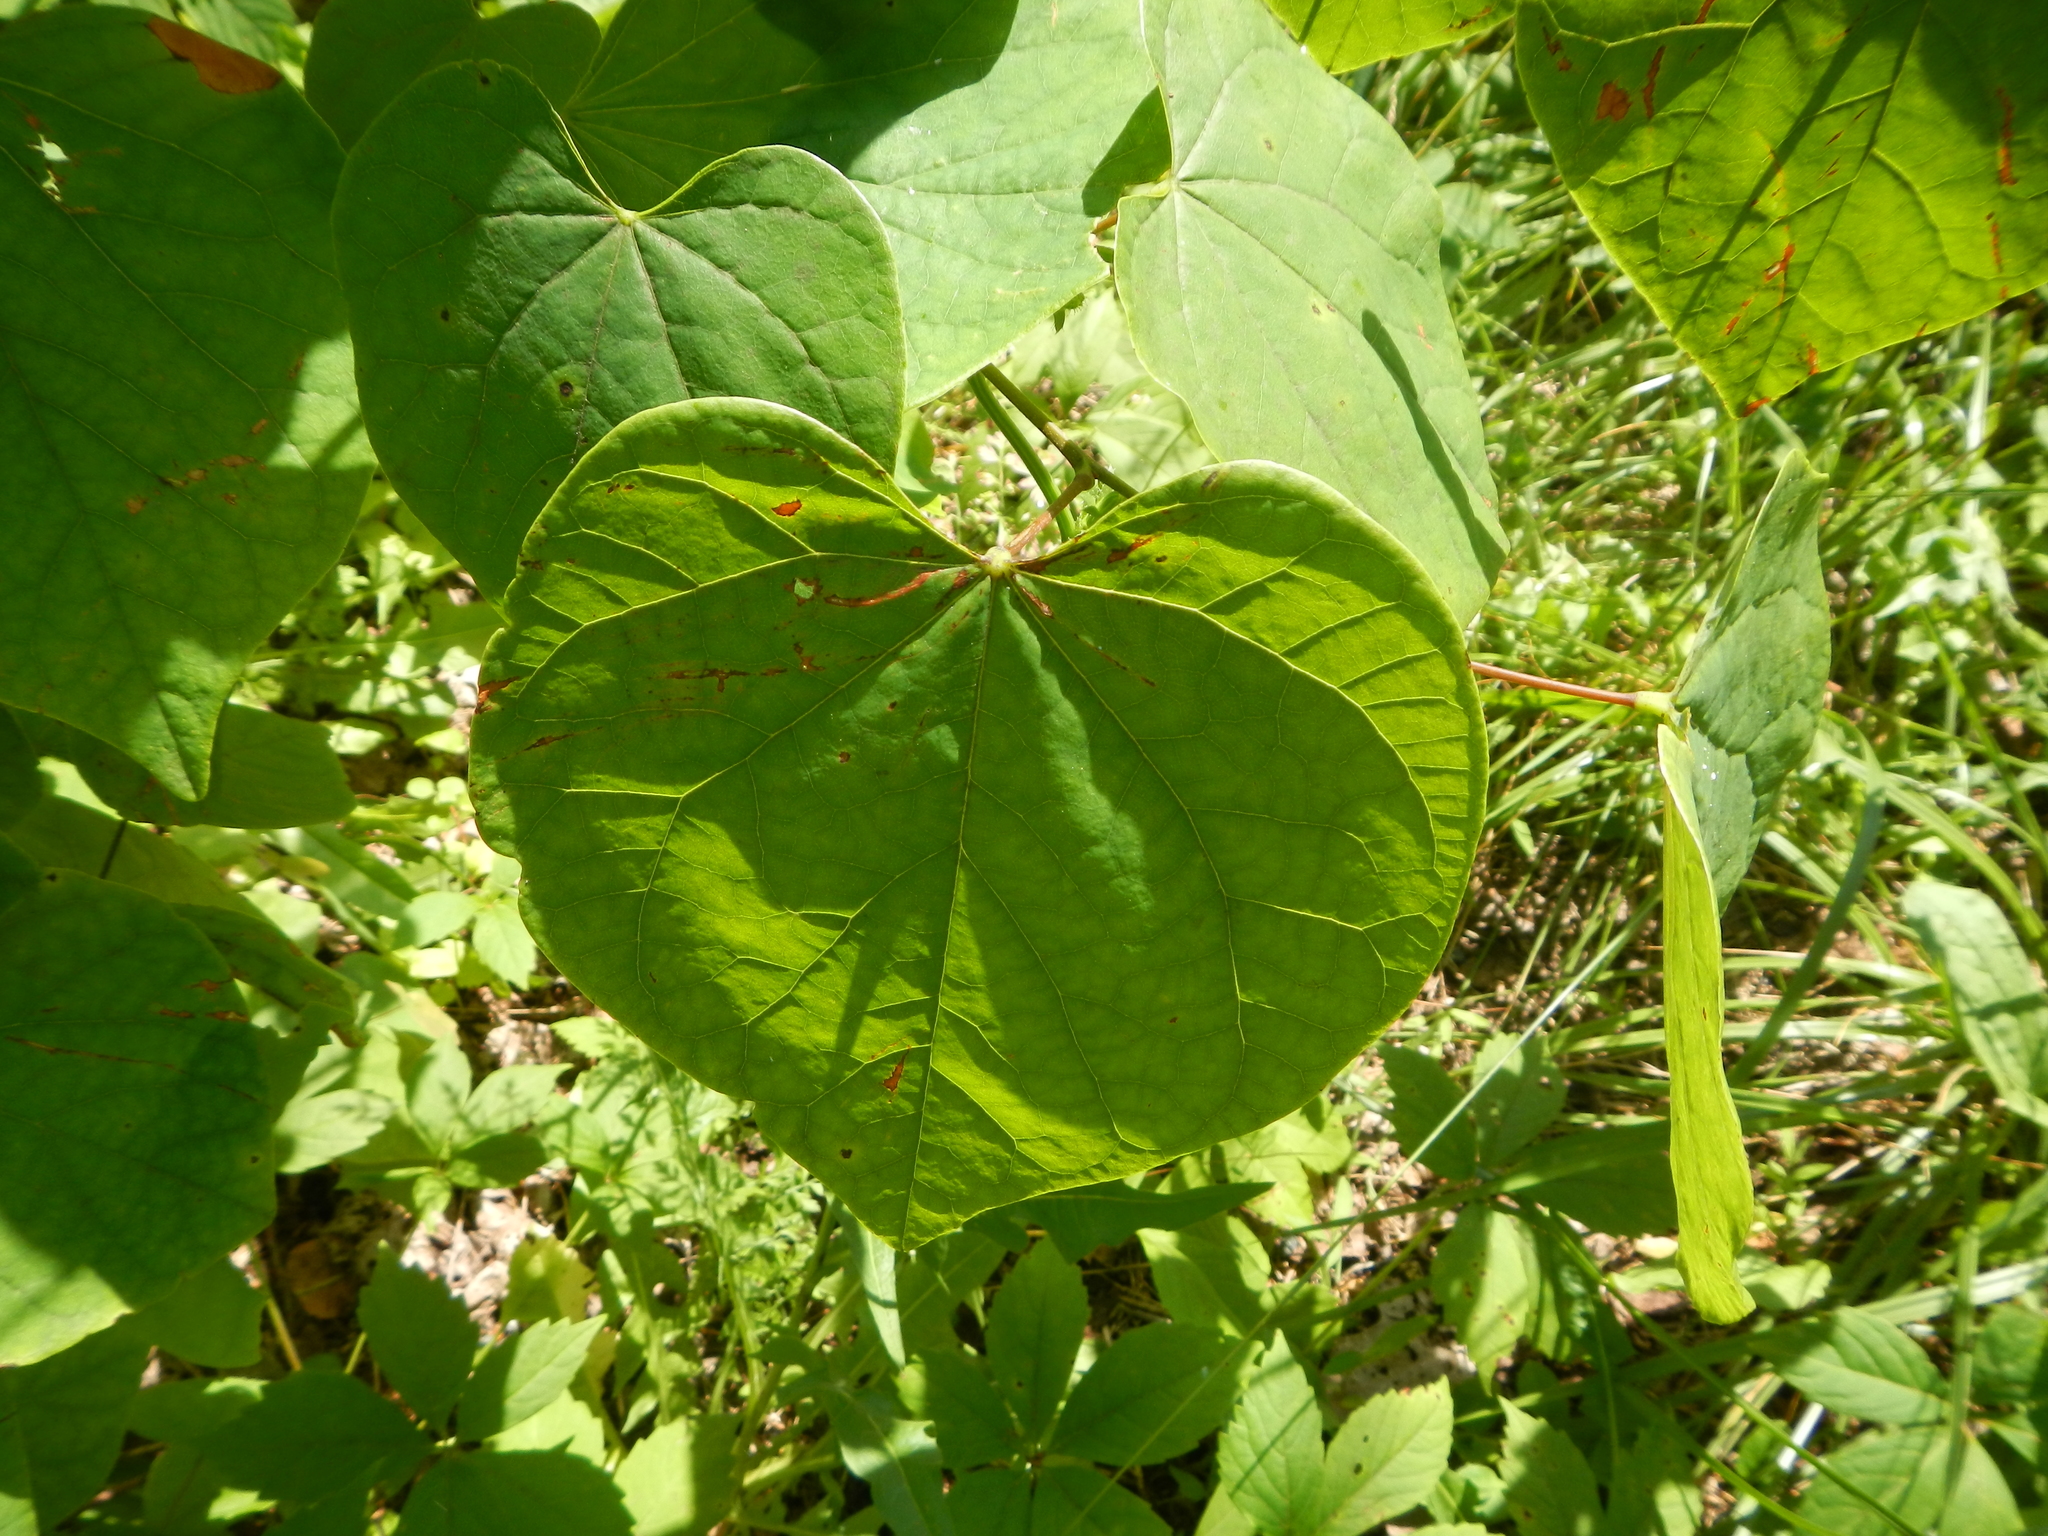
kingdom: Plantae
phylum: Tracheophyta
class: Magnoliopsida
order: Fabales
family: Fabaceae
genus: Cercis
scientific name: Cercis canadensis
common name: Eastern redbud
